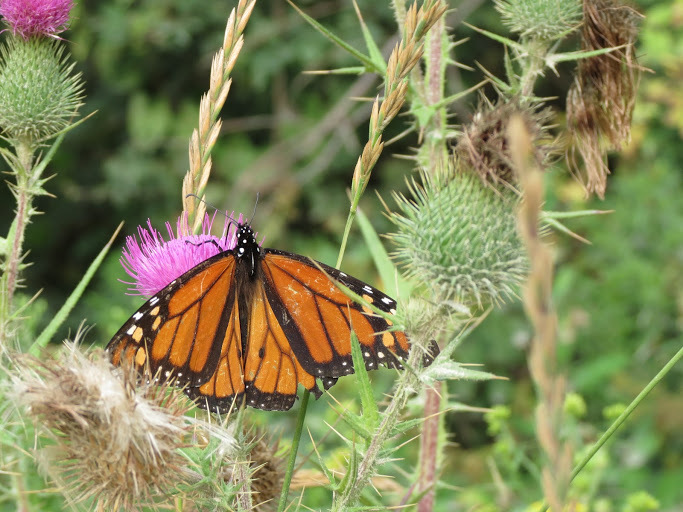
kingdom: Animalia
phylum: Arthropoda
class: Insecta
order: Lepidoptera
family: Nymphalidae
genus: Danaus
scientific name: Danaus plexippus
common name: Monarch
